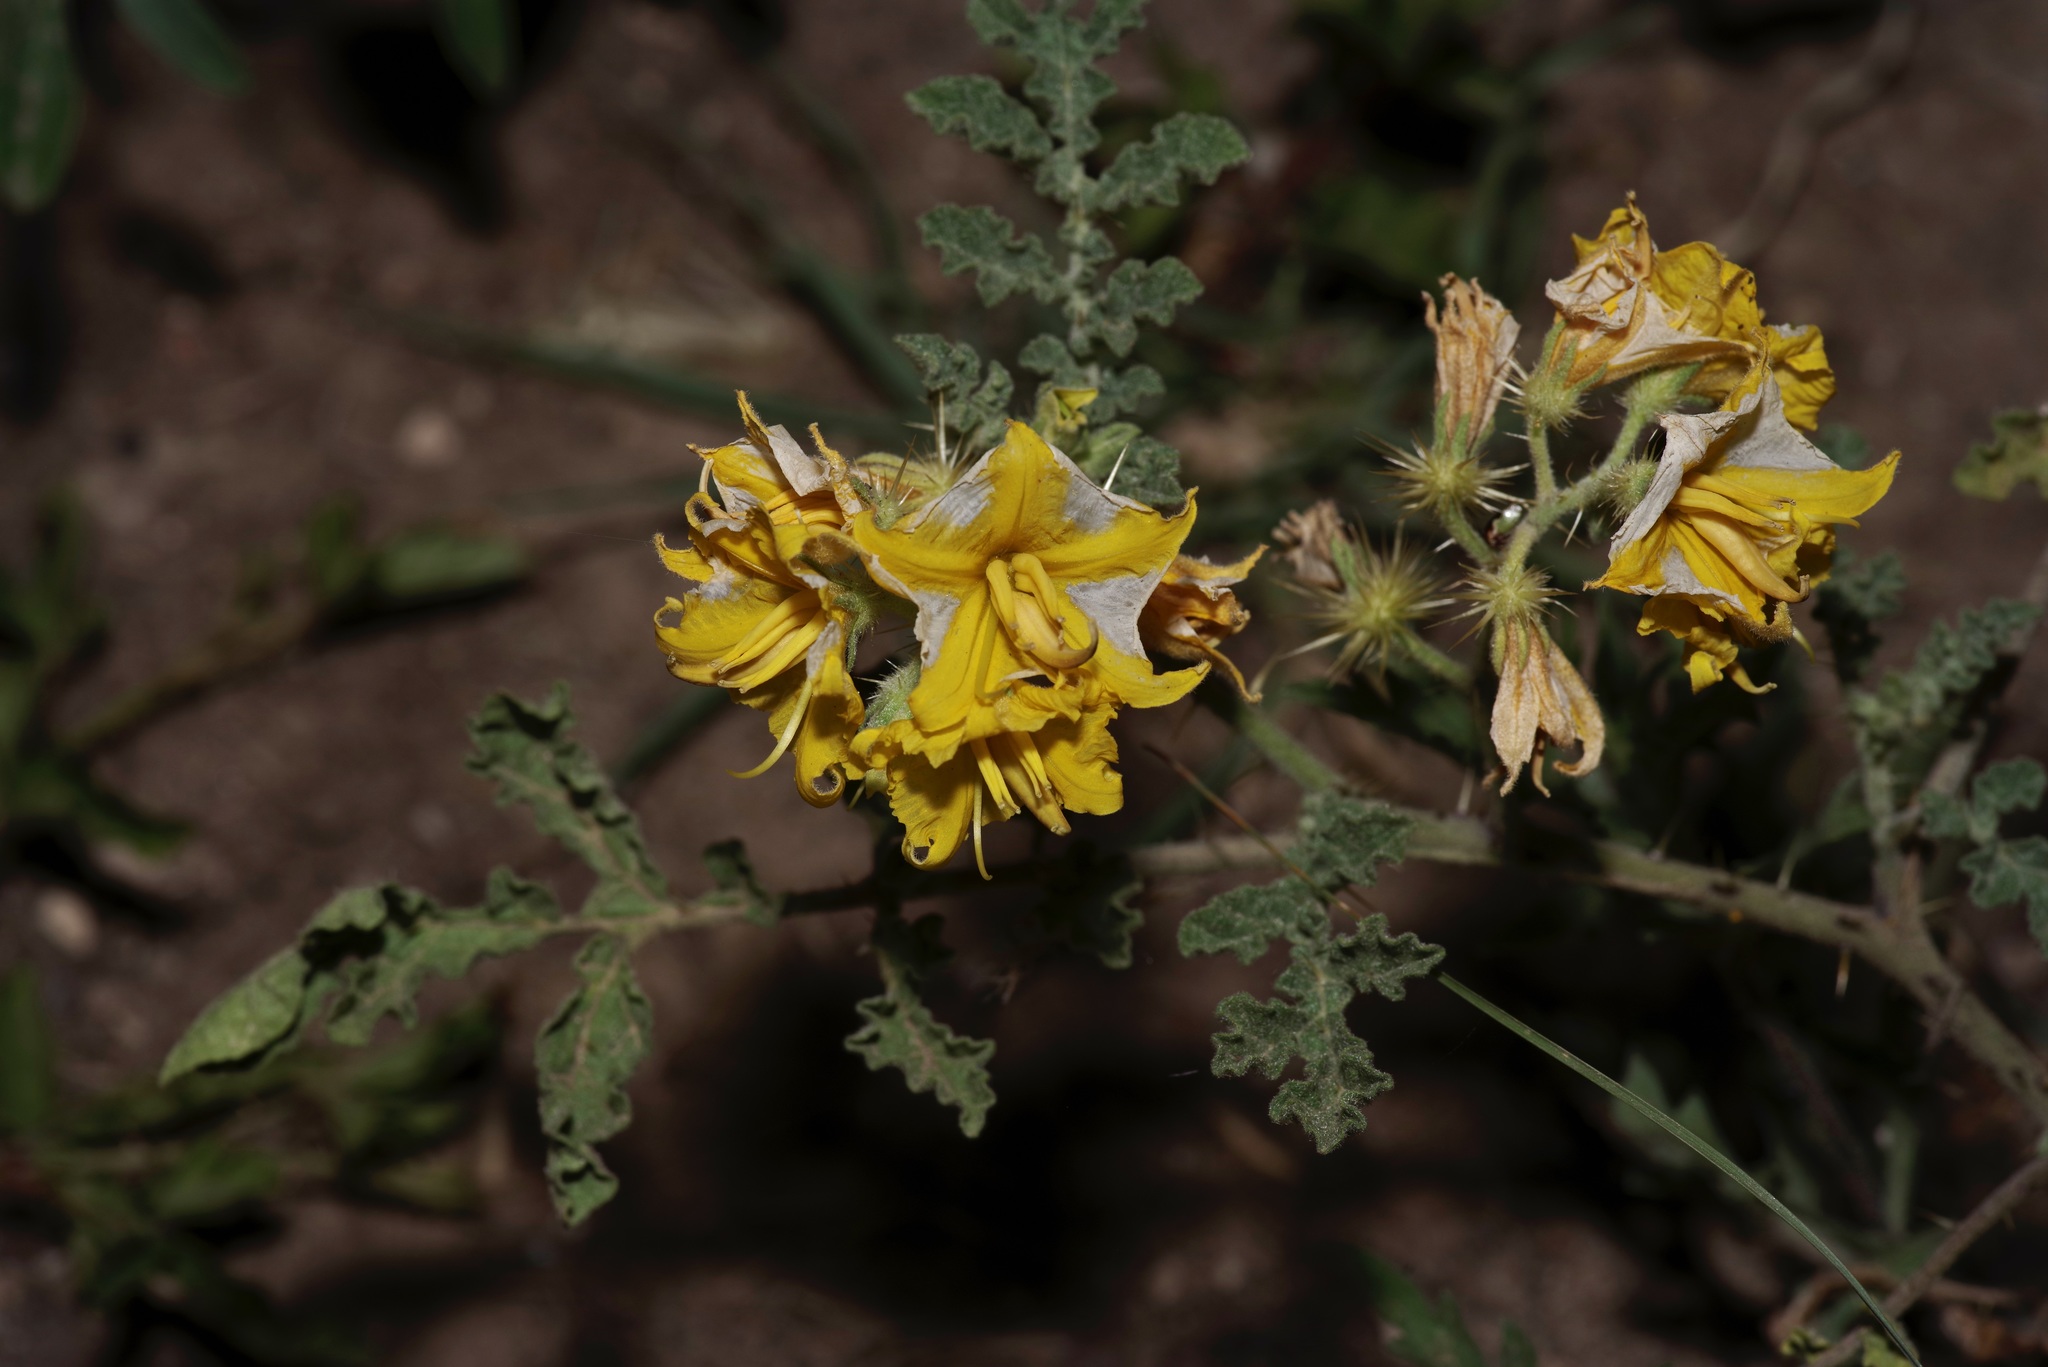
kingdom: Plantae
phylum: Tracheophyta
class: Magnoliopsida
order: Solanales
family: Solanaceae
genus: Solanum
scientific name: Solanum angustifolium
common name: Buffalobur nightshade
